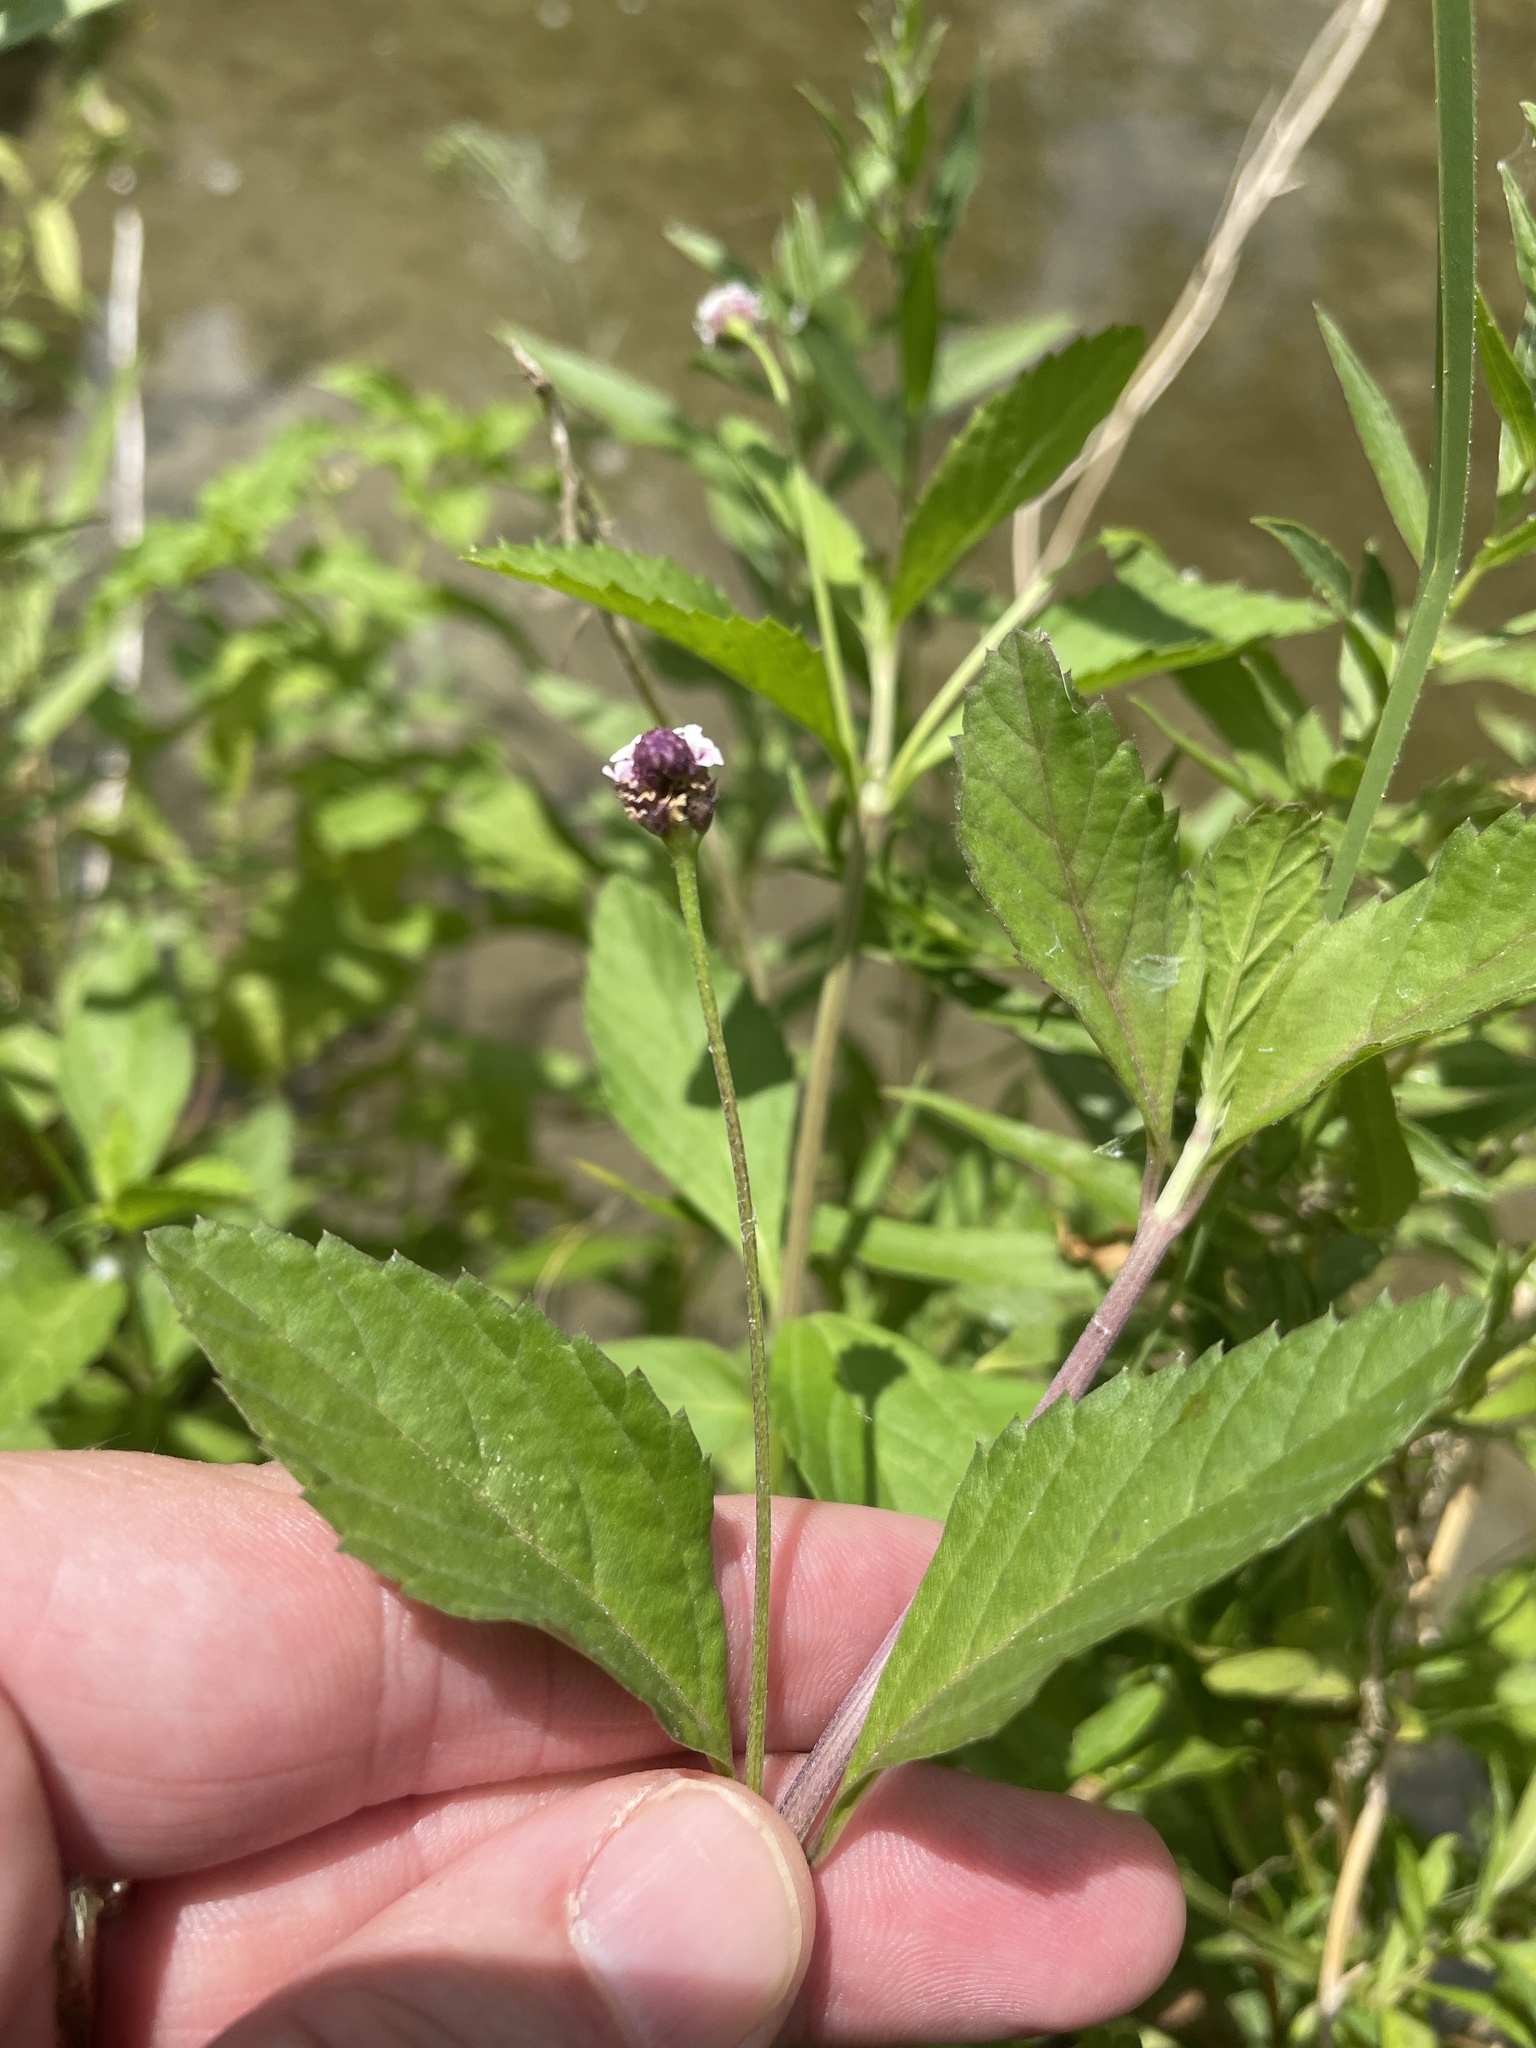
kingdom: Plantae
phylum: Tracheophyta
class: Magnoliopsida
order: Lamiales
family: Verbenaceae
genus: Phyla
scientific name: Phyla lanceolata
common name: Northern fogfruit
